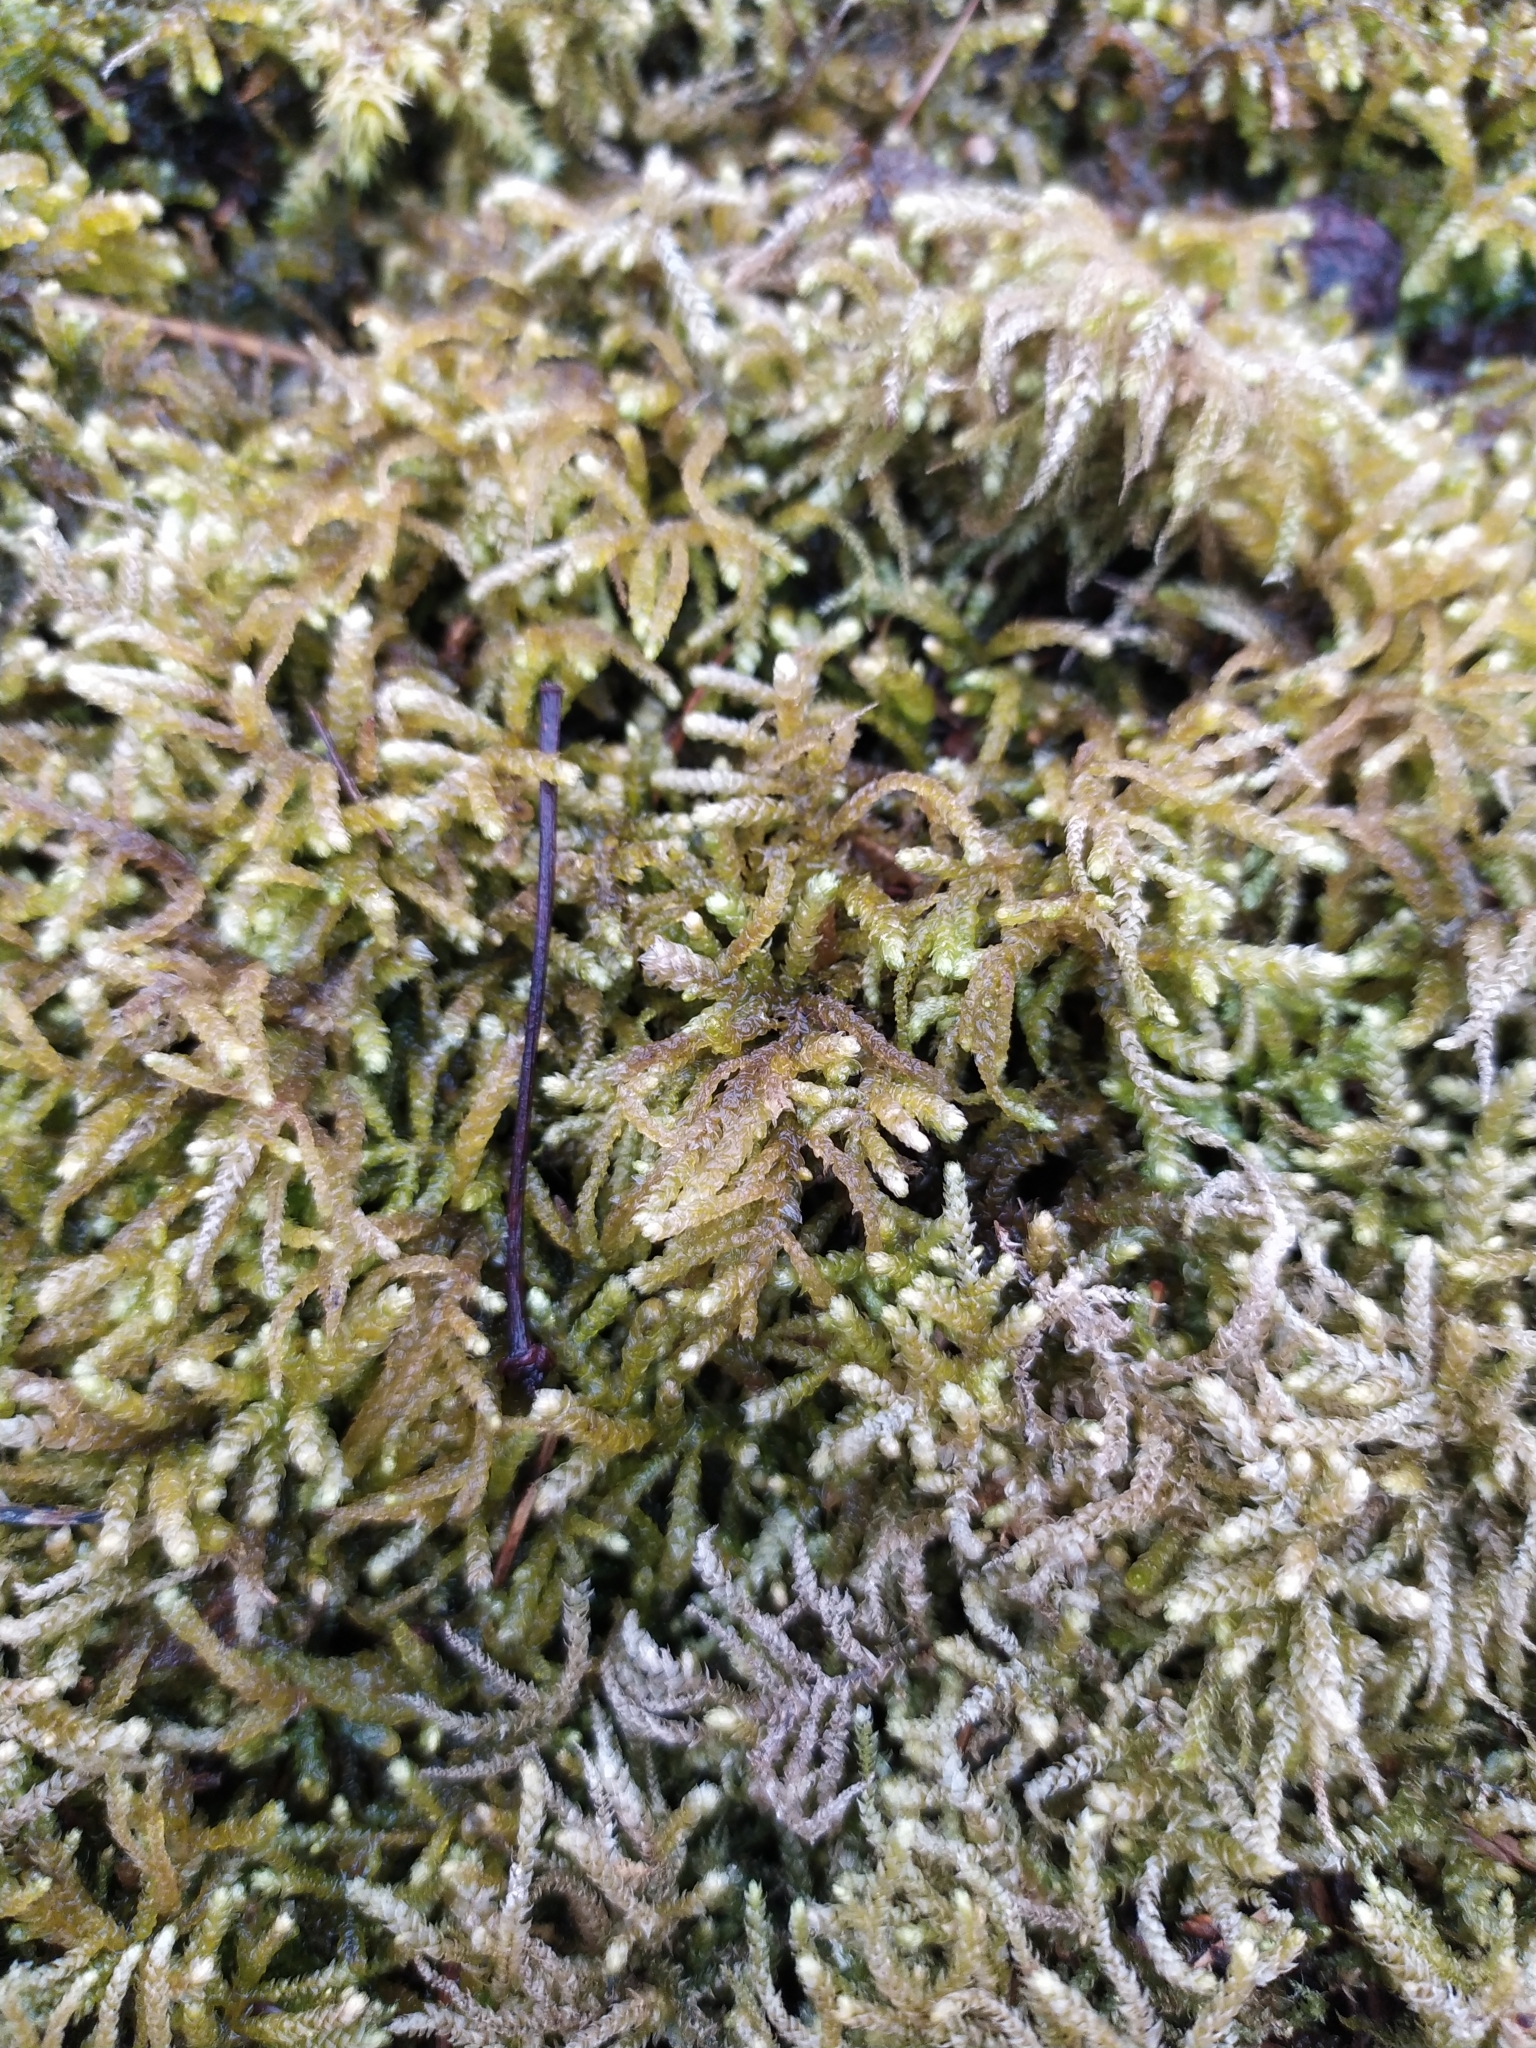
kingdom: Plantae
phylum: Bryophyta
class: Bryopsida
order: Hypnales
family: Brachytheciaceae
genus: Eurhynchium
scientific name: Eurhynchium angustirete
